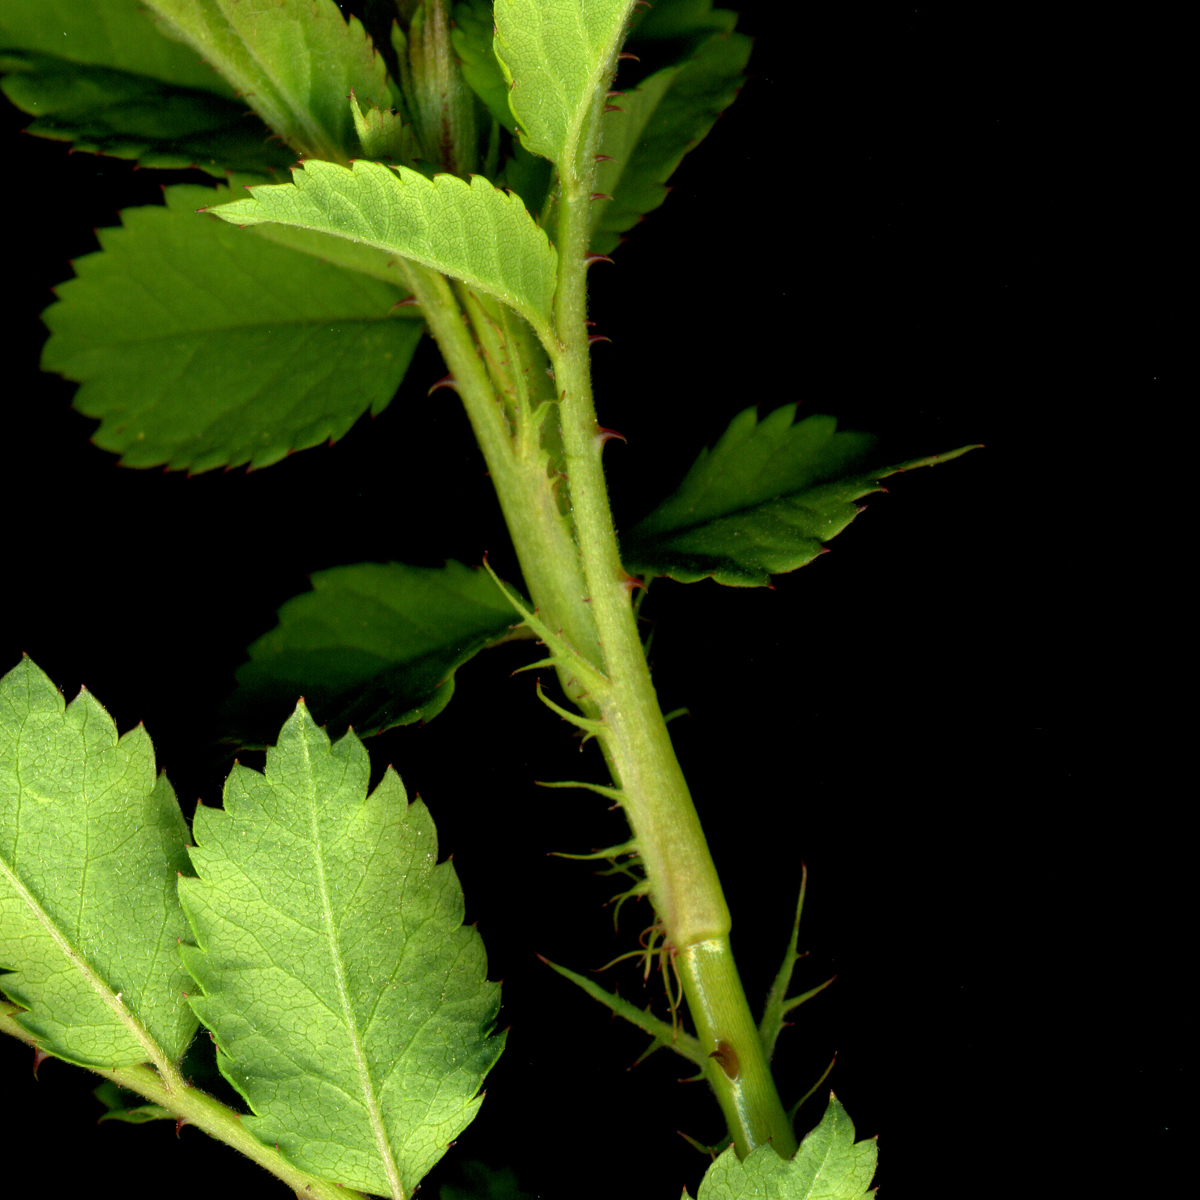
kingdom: Plantae
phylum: Tracheophyta
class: Magnoliopsida
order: Rosales
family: Rosaceae
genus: Rosa
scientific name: Rosa multiflora
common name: Multiflora rose
